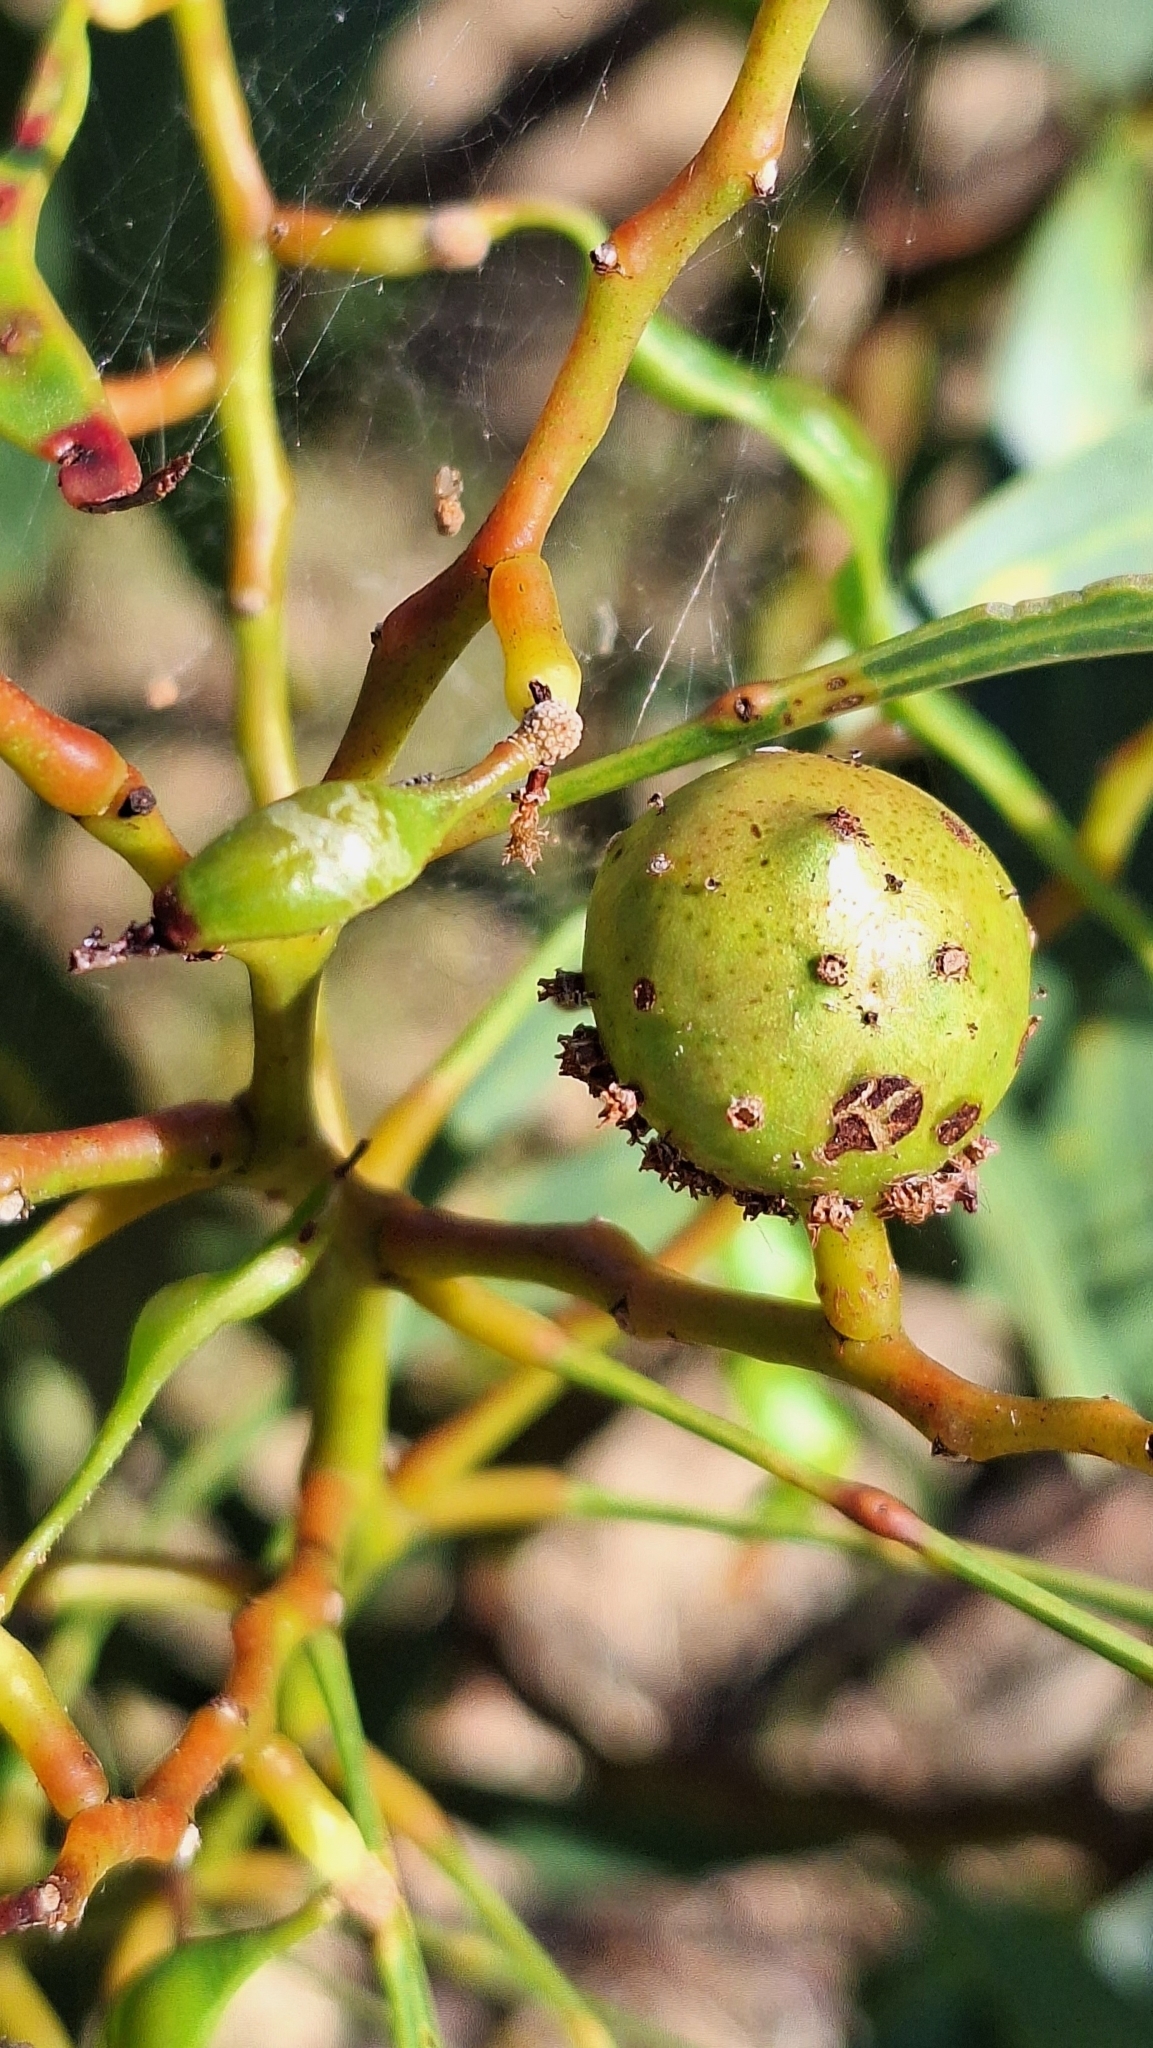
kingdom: Animalia
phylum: Arthropoda
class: Insecta
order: Hymenoptera
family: Pteromalidae
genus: Trichilogaster
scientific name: Trichilogaster signiventris
